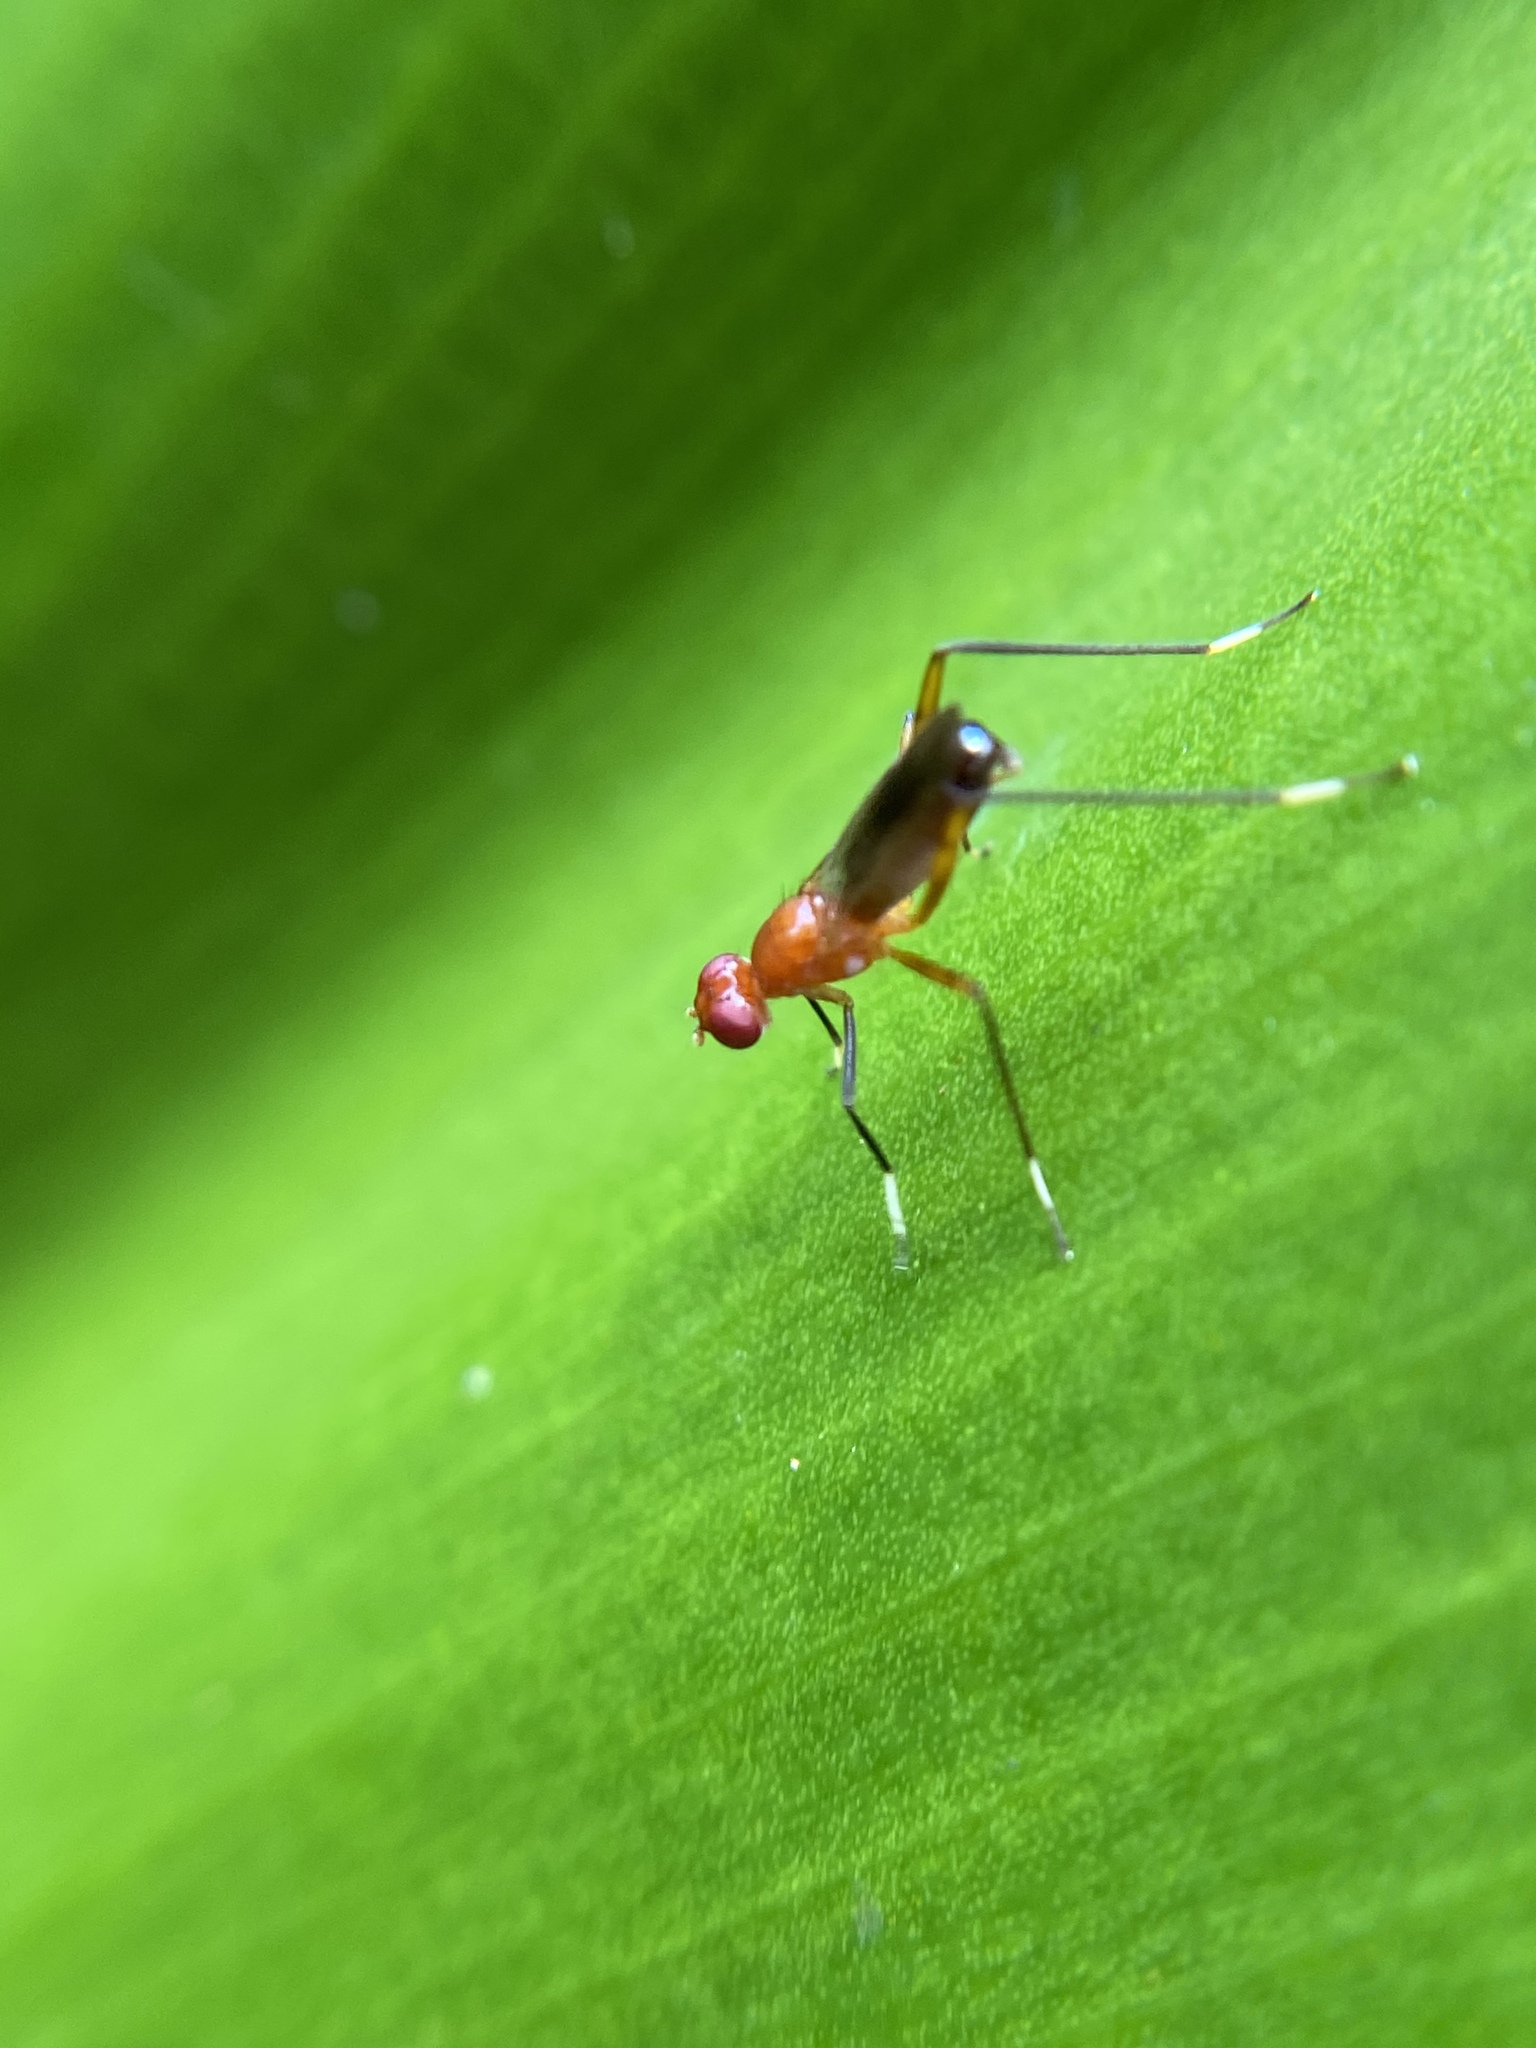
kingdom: Animalia
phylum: Arthropoda
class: Insecta
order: Diptera
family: Micropezidae
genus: Grallipeza
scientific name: Grallipeza nebulosa
